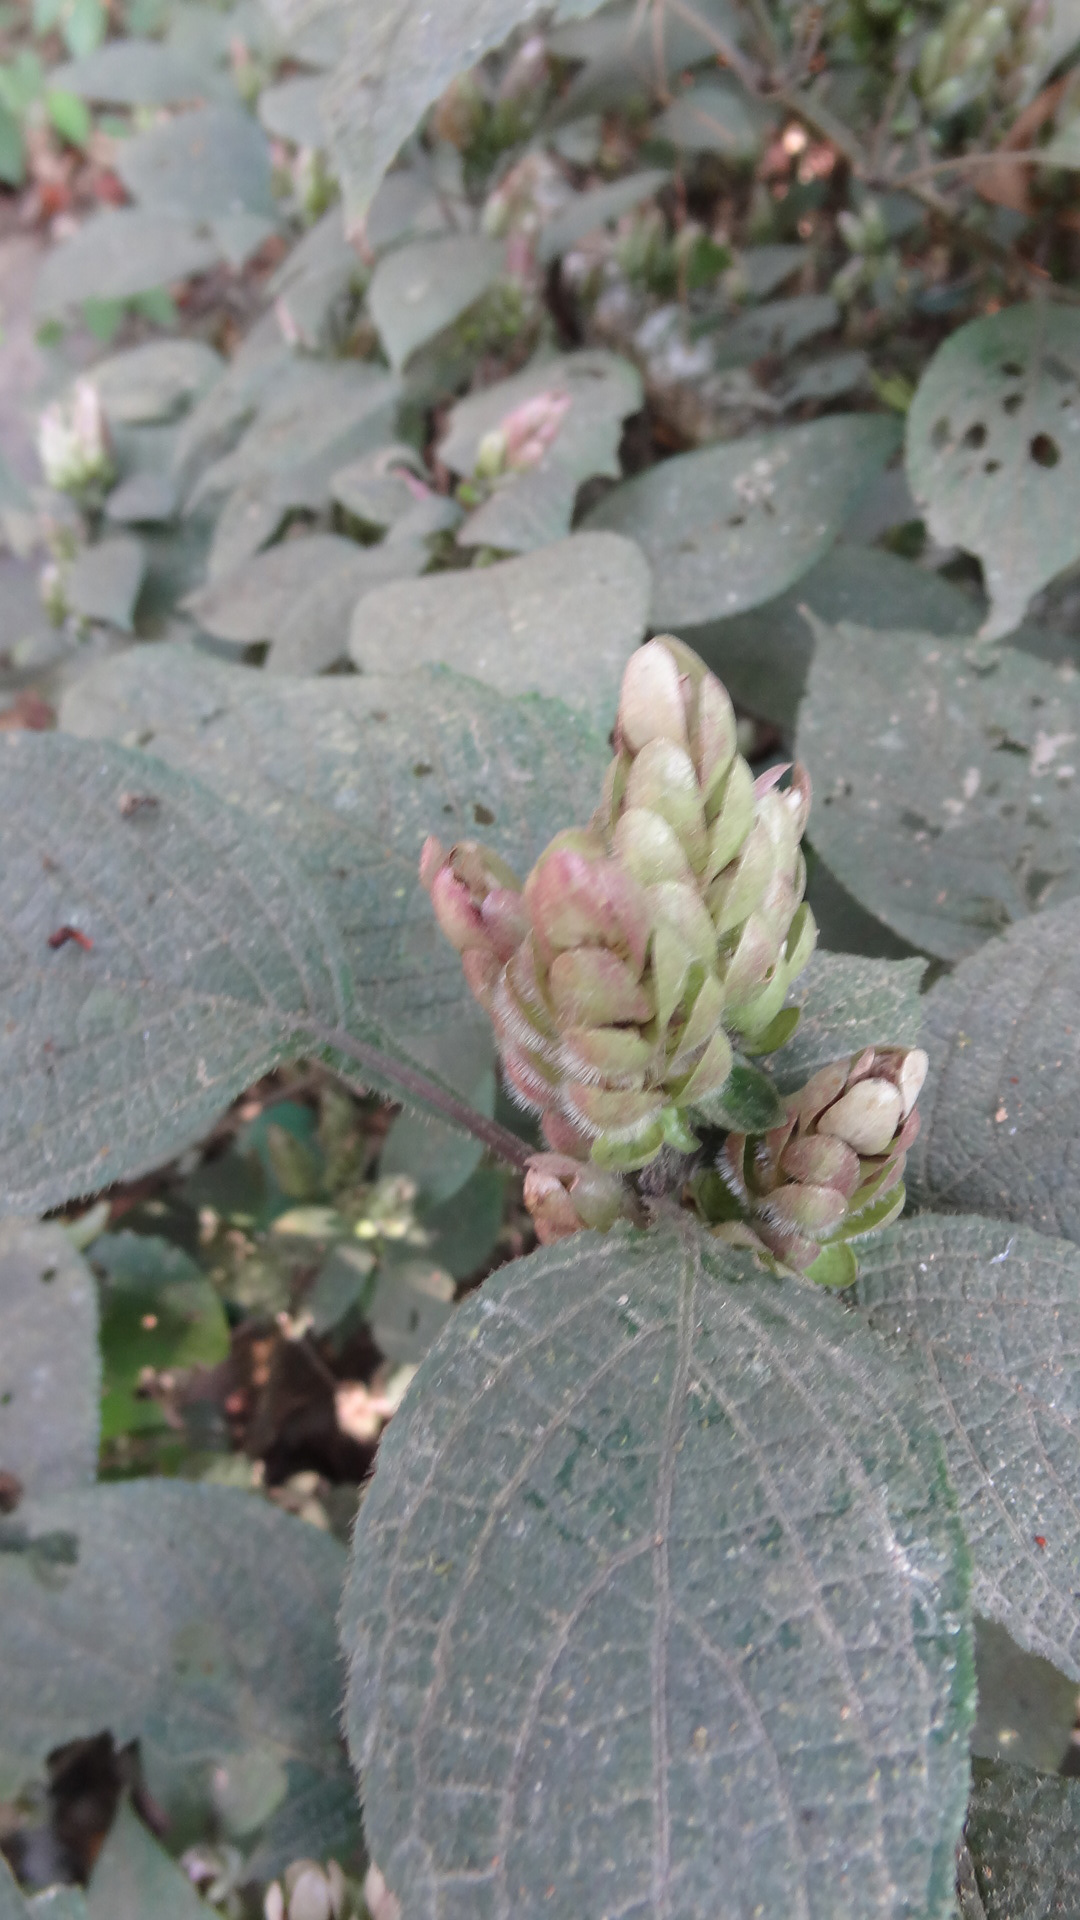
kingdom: Plantae
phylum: Tracheophyta
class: Magnoliopsida
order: Lamiales
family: Acanthaceae
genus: Strobilanthes
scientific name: Strobilanthes lupulina
